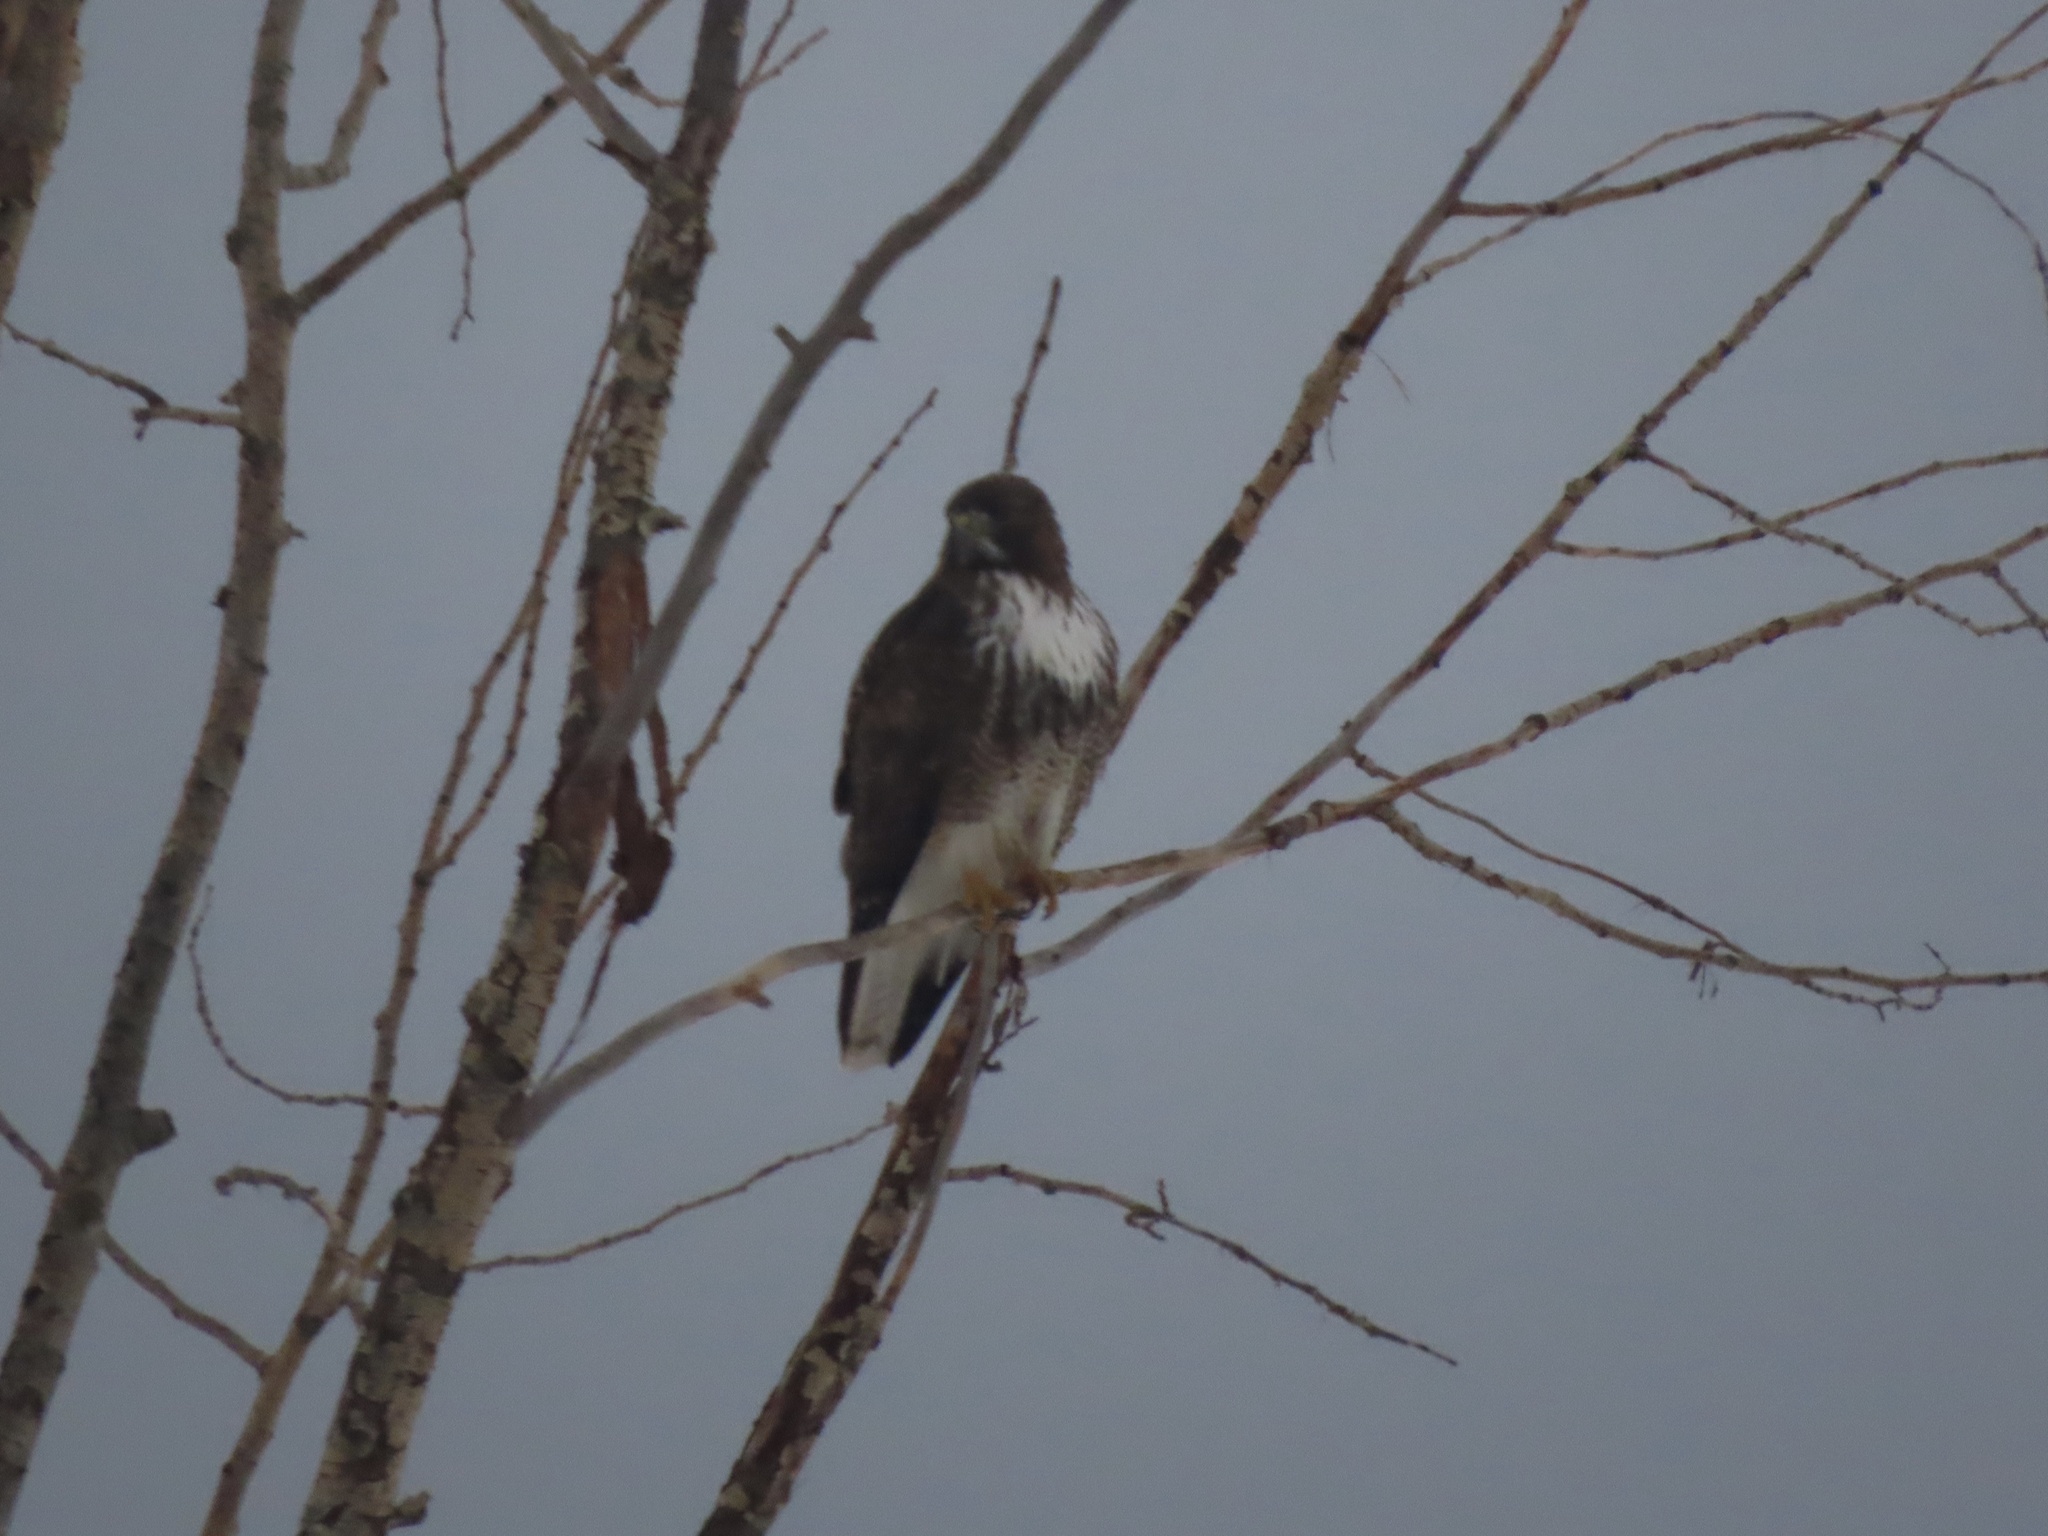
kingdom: Animalia
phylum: Chordata
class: Aves
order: Accipitriformes
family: Accipitridae
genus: Buteo
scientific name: Buteo jamaicensis
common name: Red-tailed hawk
